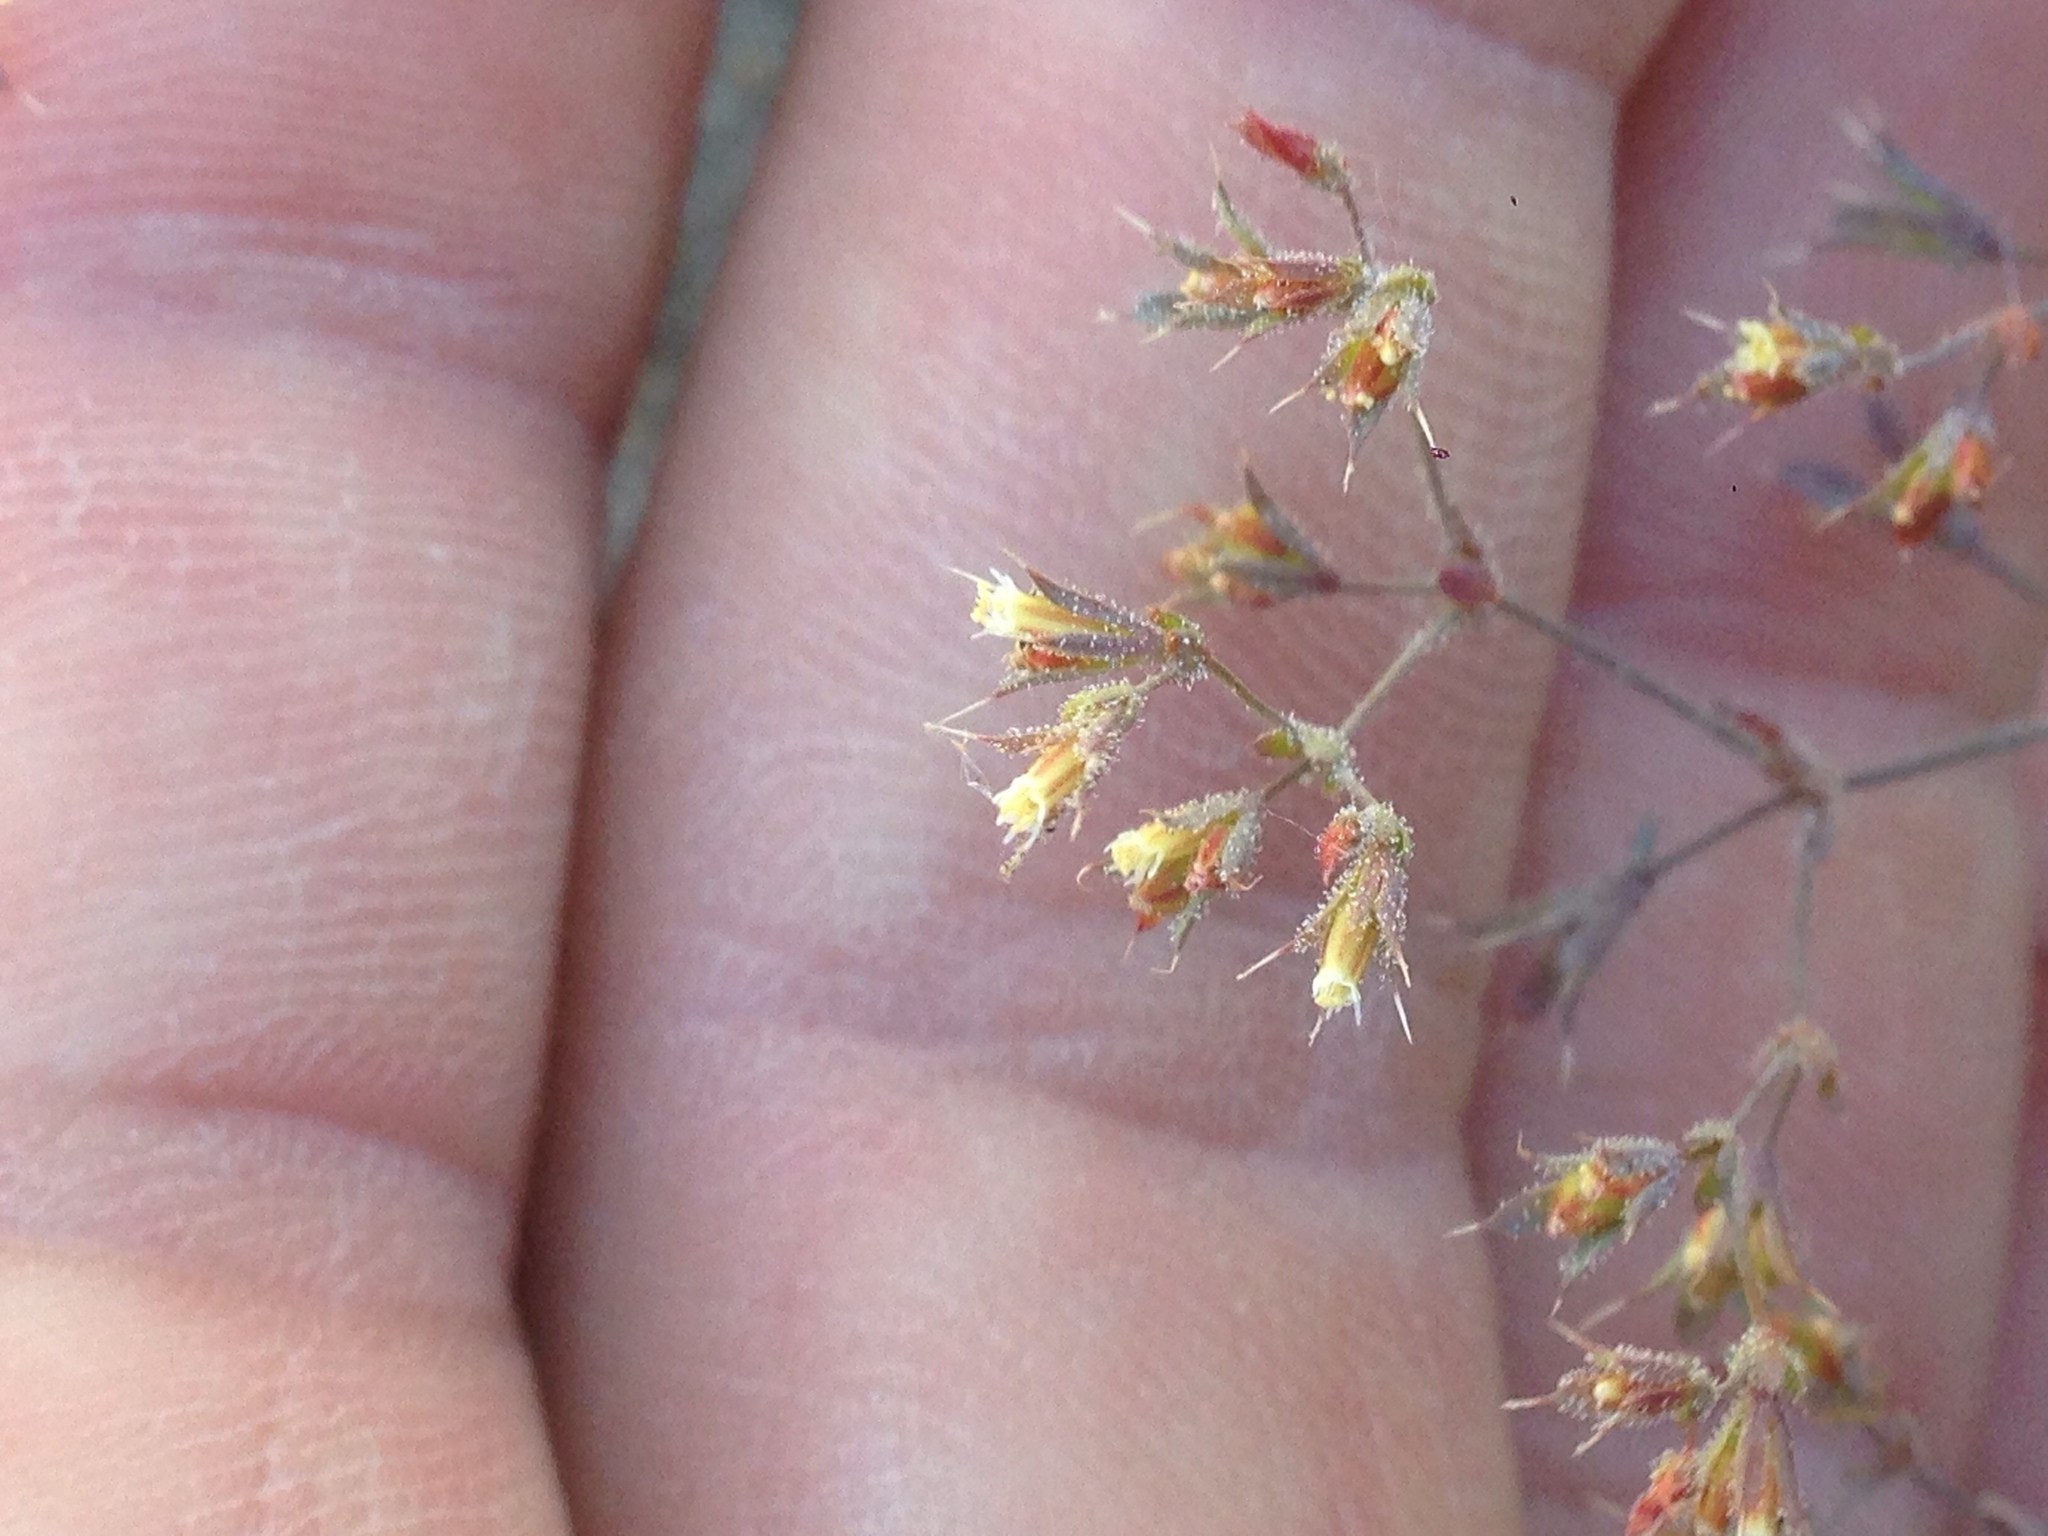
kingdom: Plantae
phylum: Tracheophyta
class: Magnoliopsida
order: Caryophyllales
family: Polygonaceae
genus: Sidotheca
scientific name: Sidotheca caryophylloides
